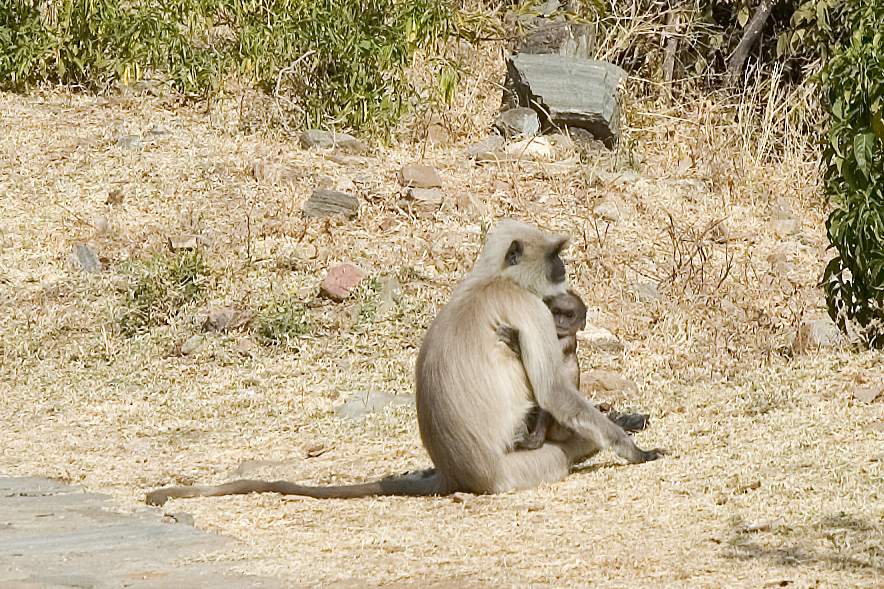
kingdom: Animalia
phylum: Chordata
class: Mammalia
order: Primates
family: Cercopithecidae
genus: Semnopithecus
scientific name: Semnopithecus entellus
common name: Northern plains gray langur
